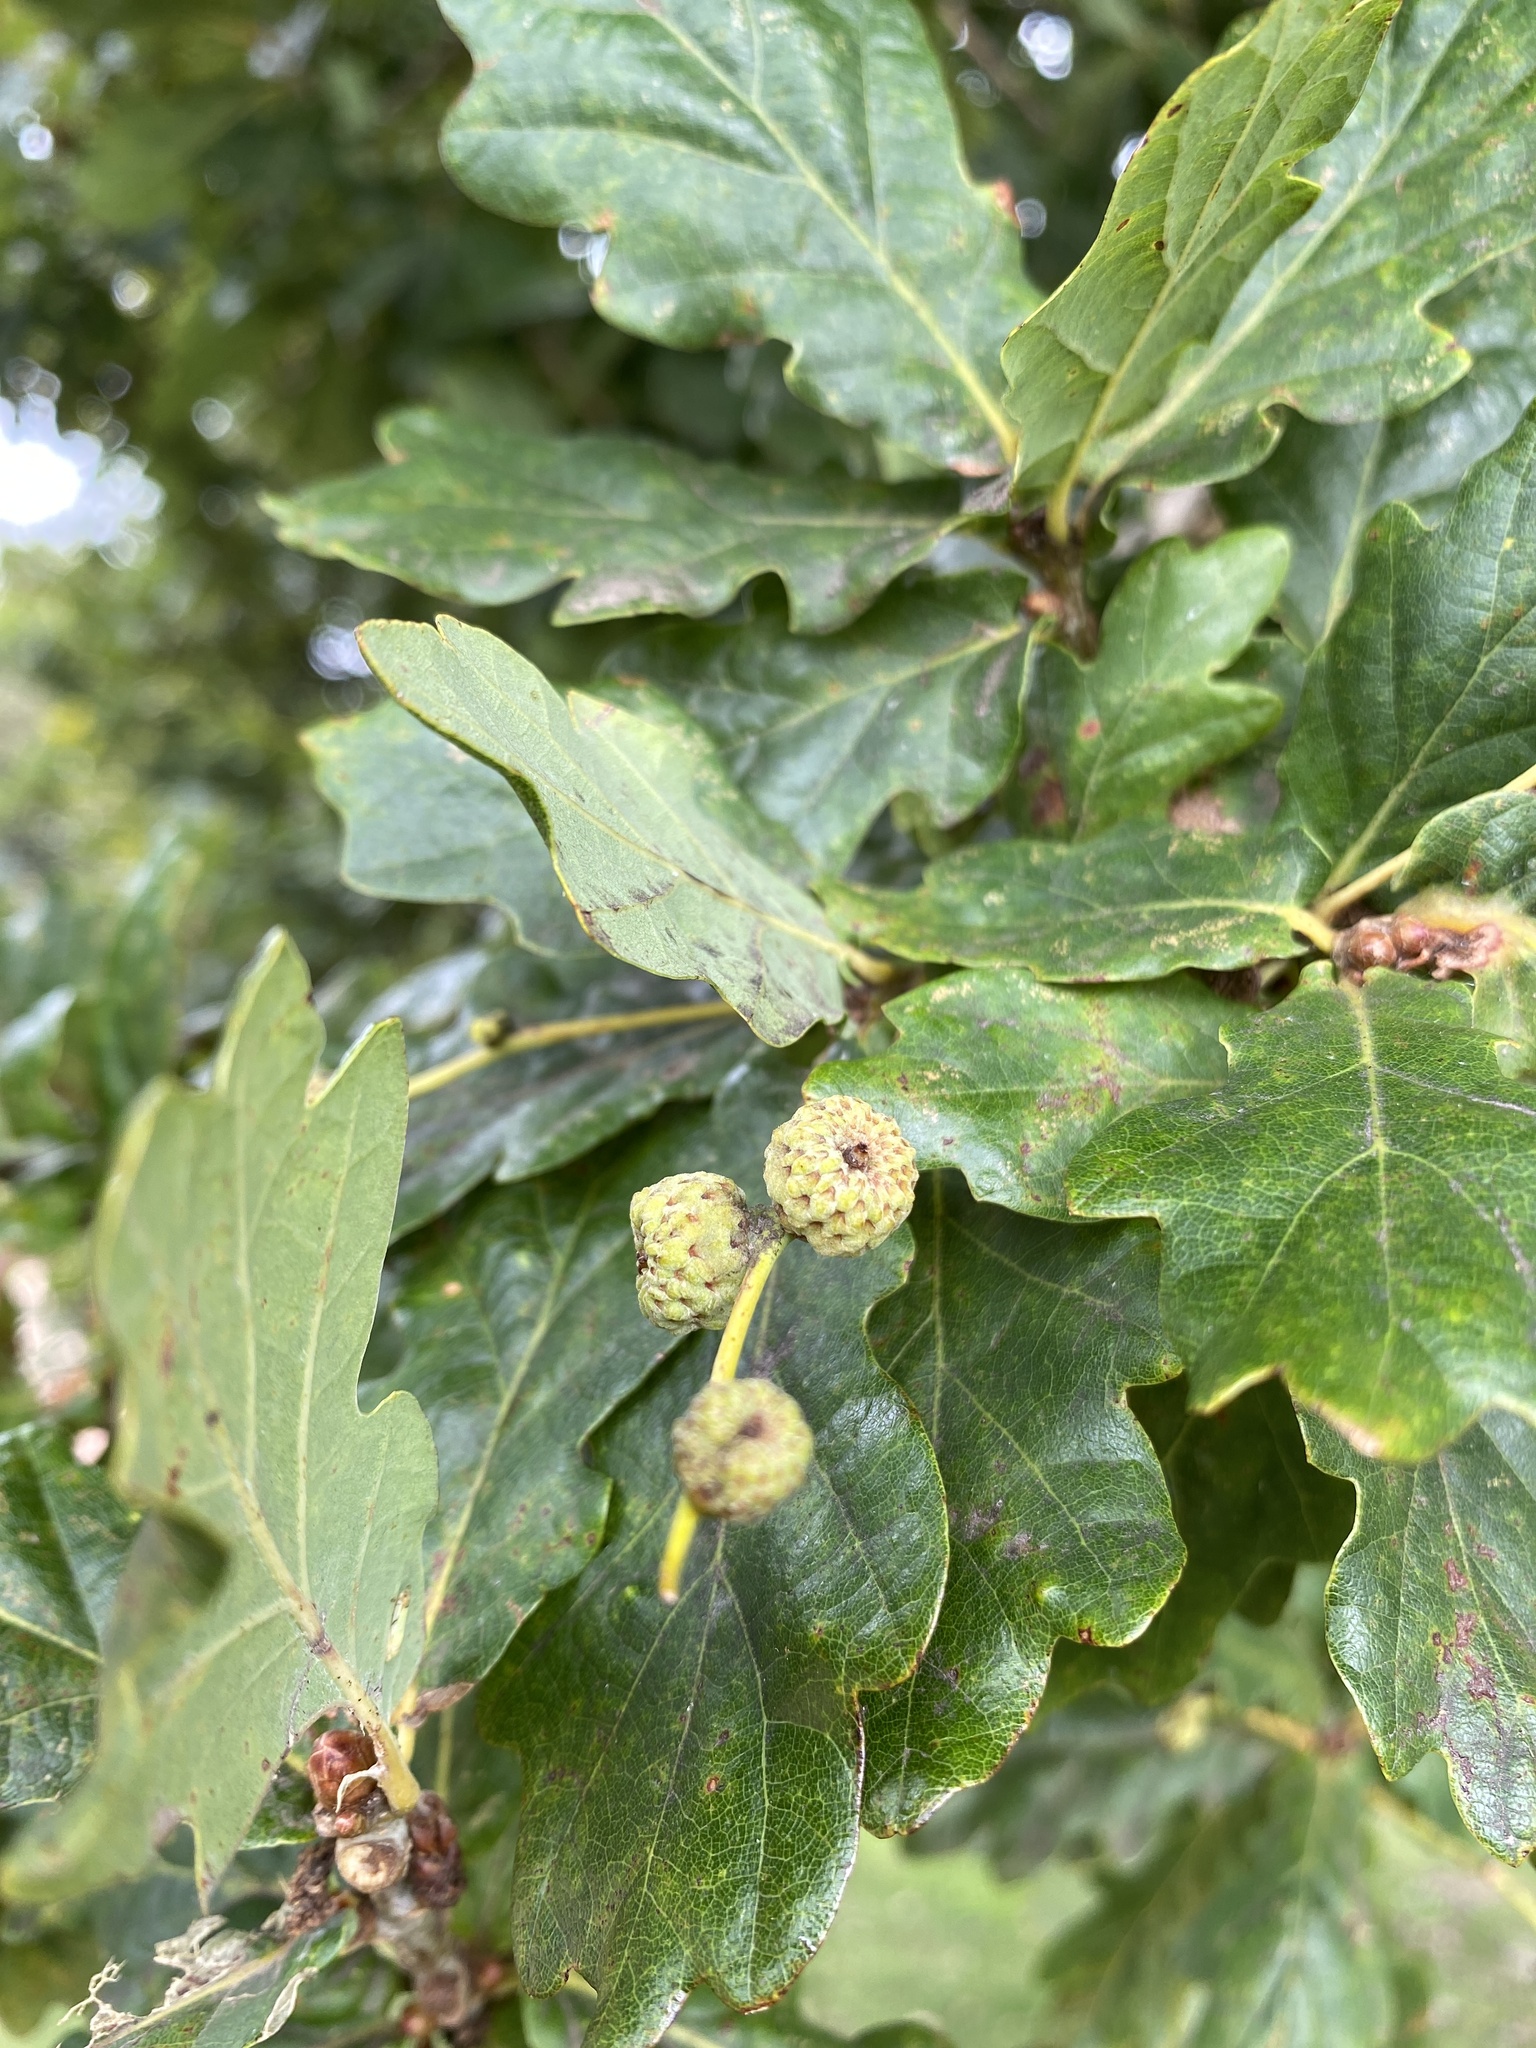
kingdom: Plantae
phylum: Tracheophyta
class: Magnoliopsida
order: Fagales
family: Fagaceae
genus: Quercus
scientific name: Quercus robur
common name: Pedunculate oak
